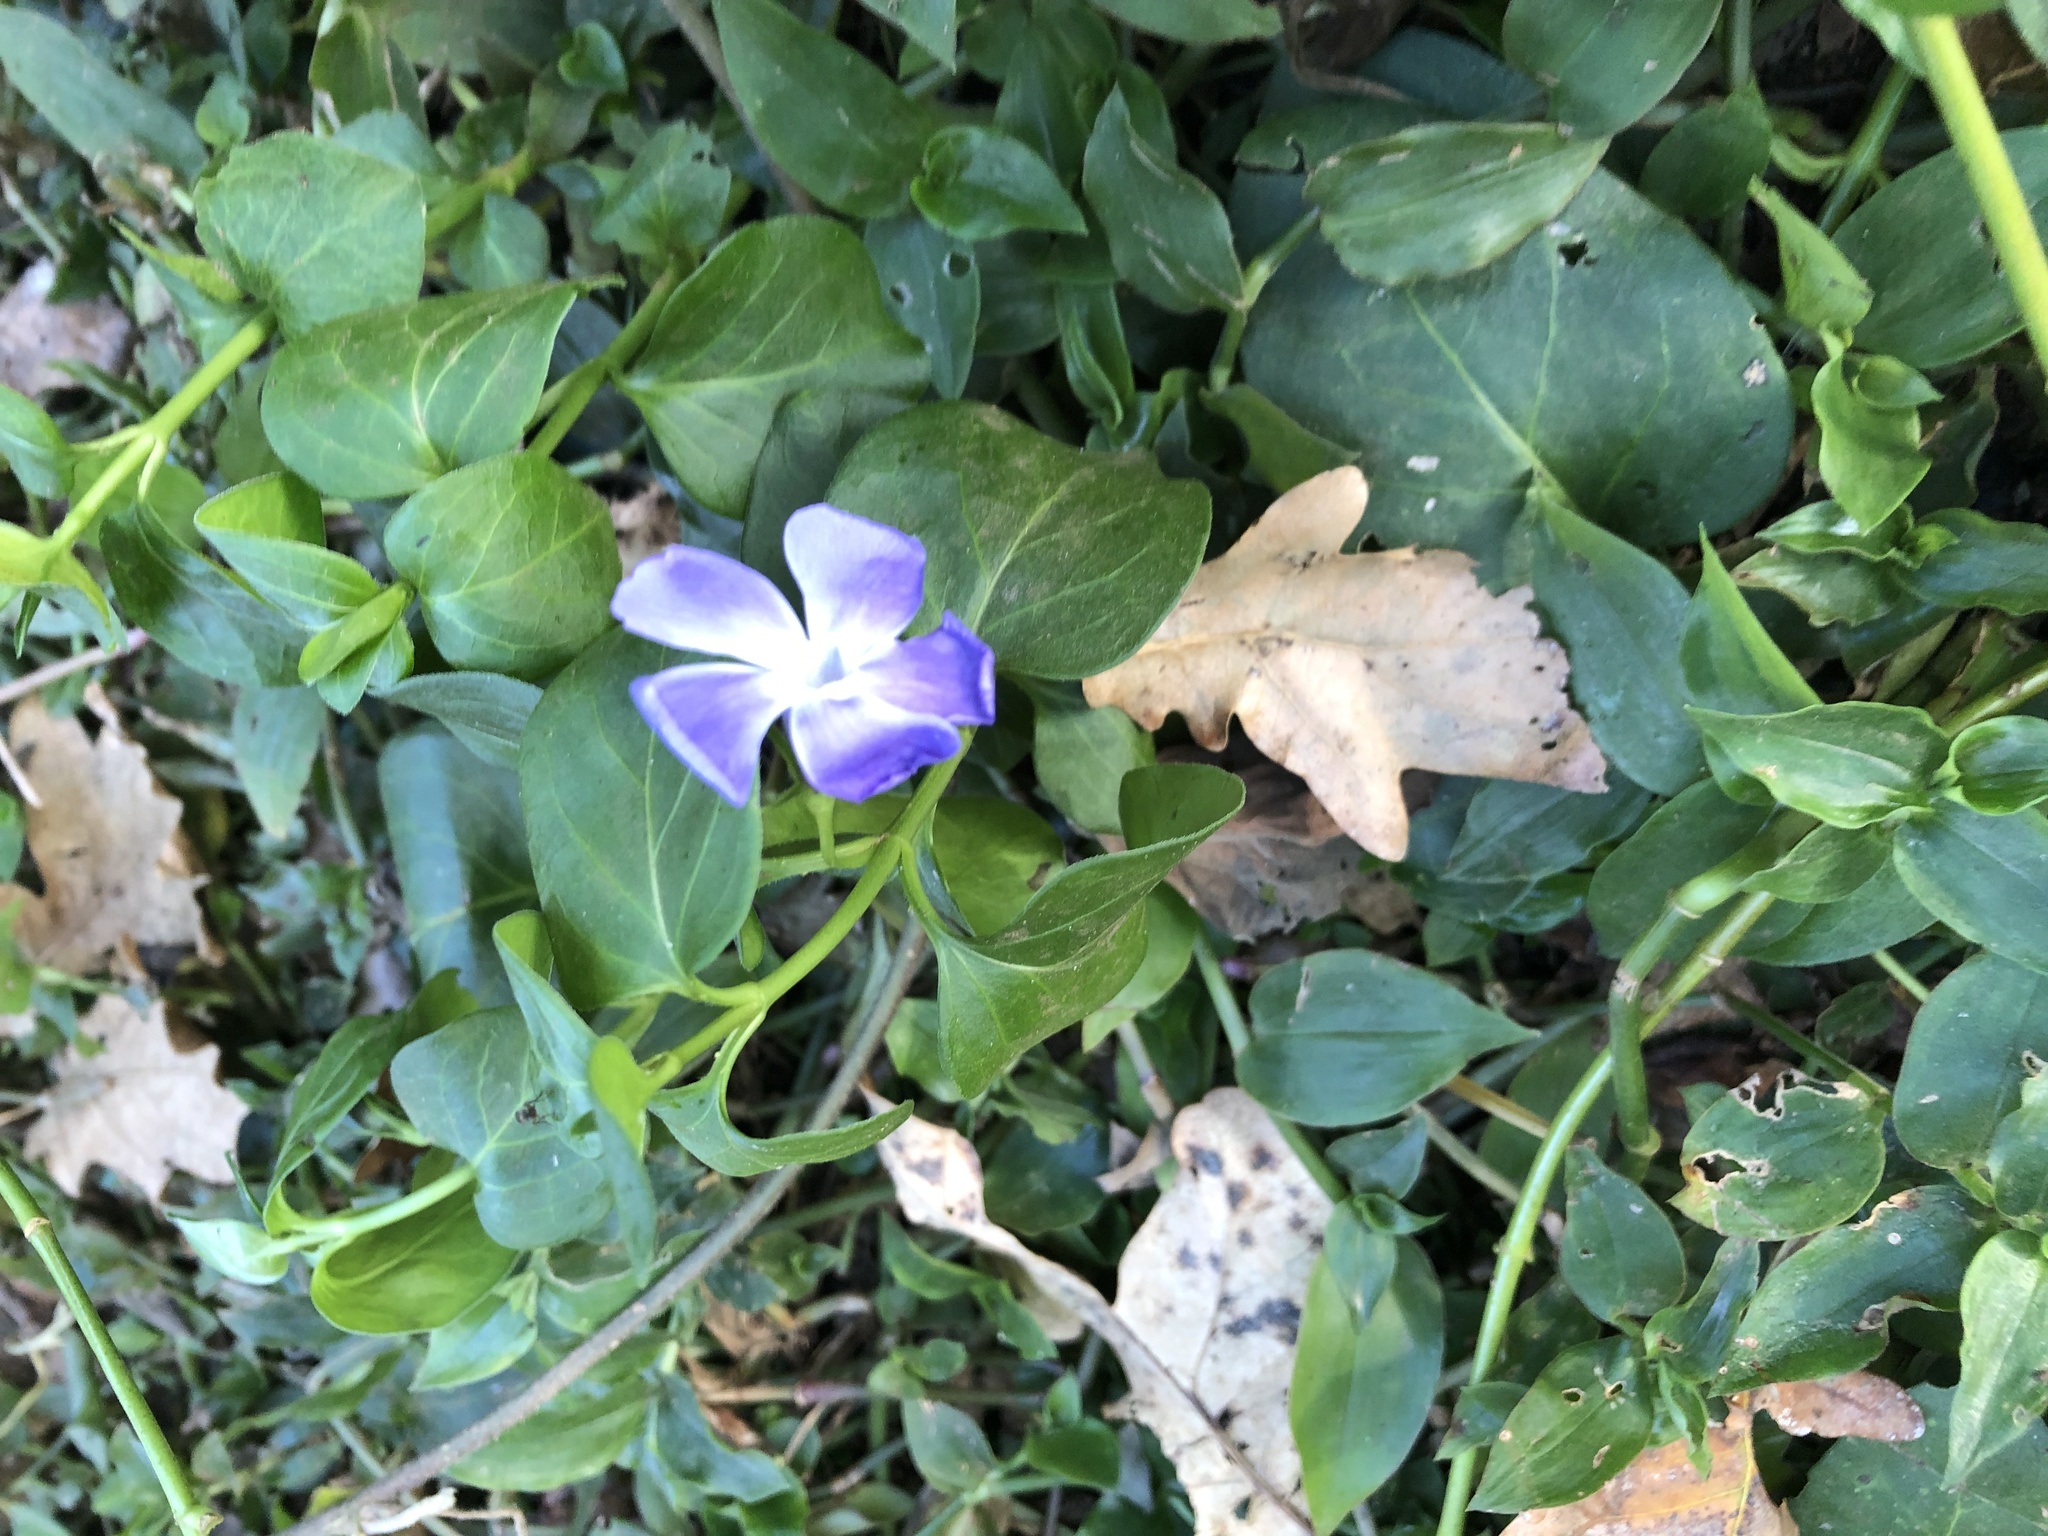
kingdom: Plantae
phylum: Tracheophyta
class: Magnoliopsida
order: Gentianales
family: Apocynaceae
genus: Vinca
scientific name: Vinca major
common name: Greater periwinkle
